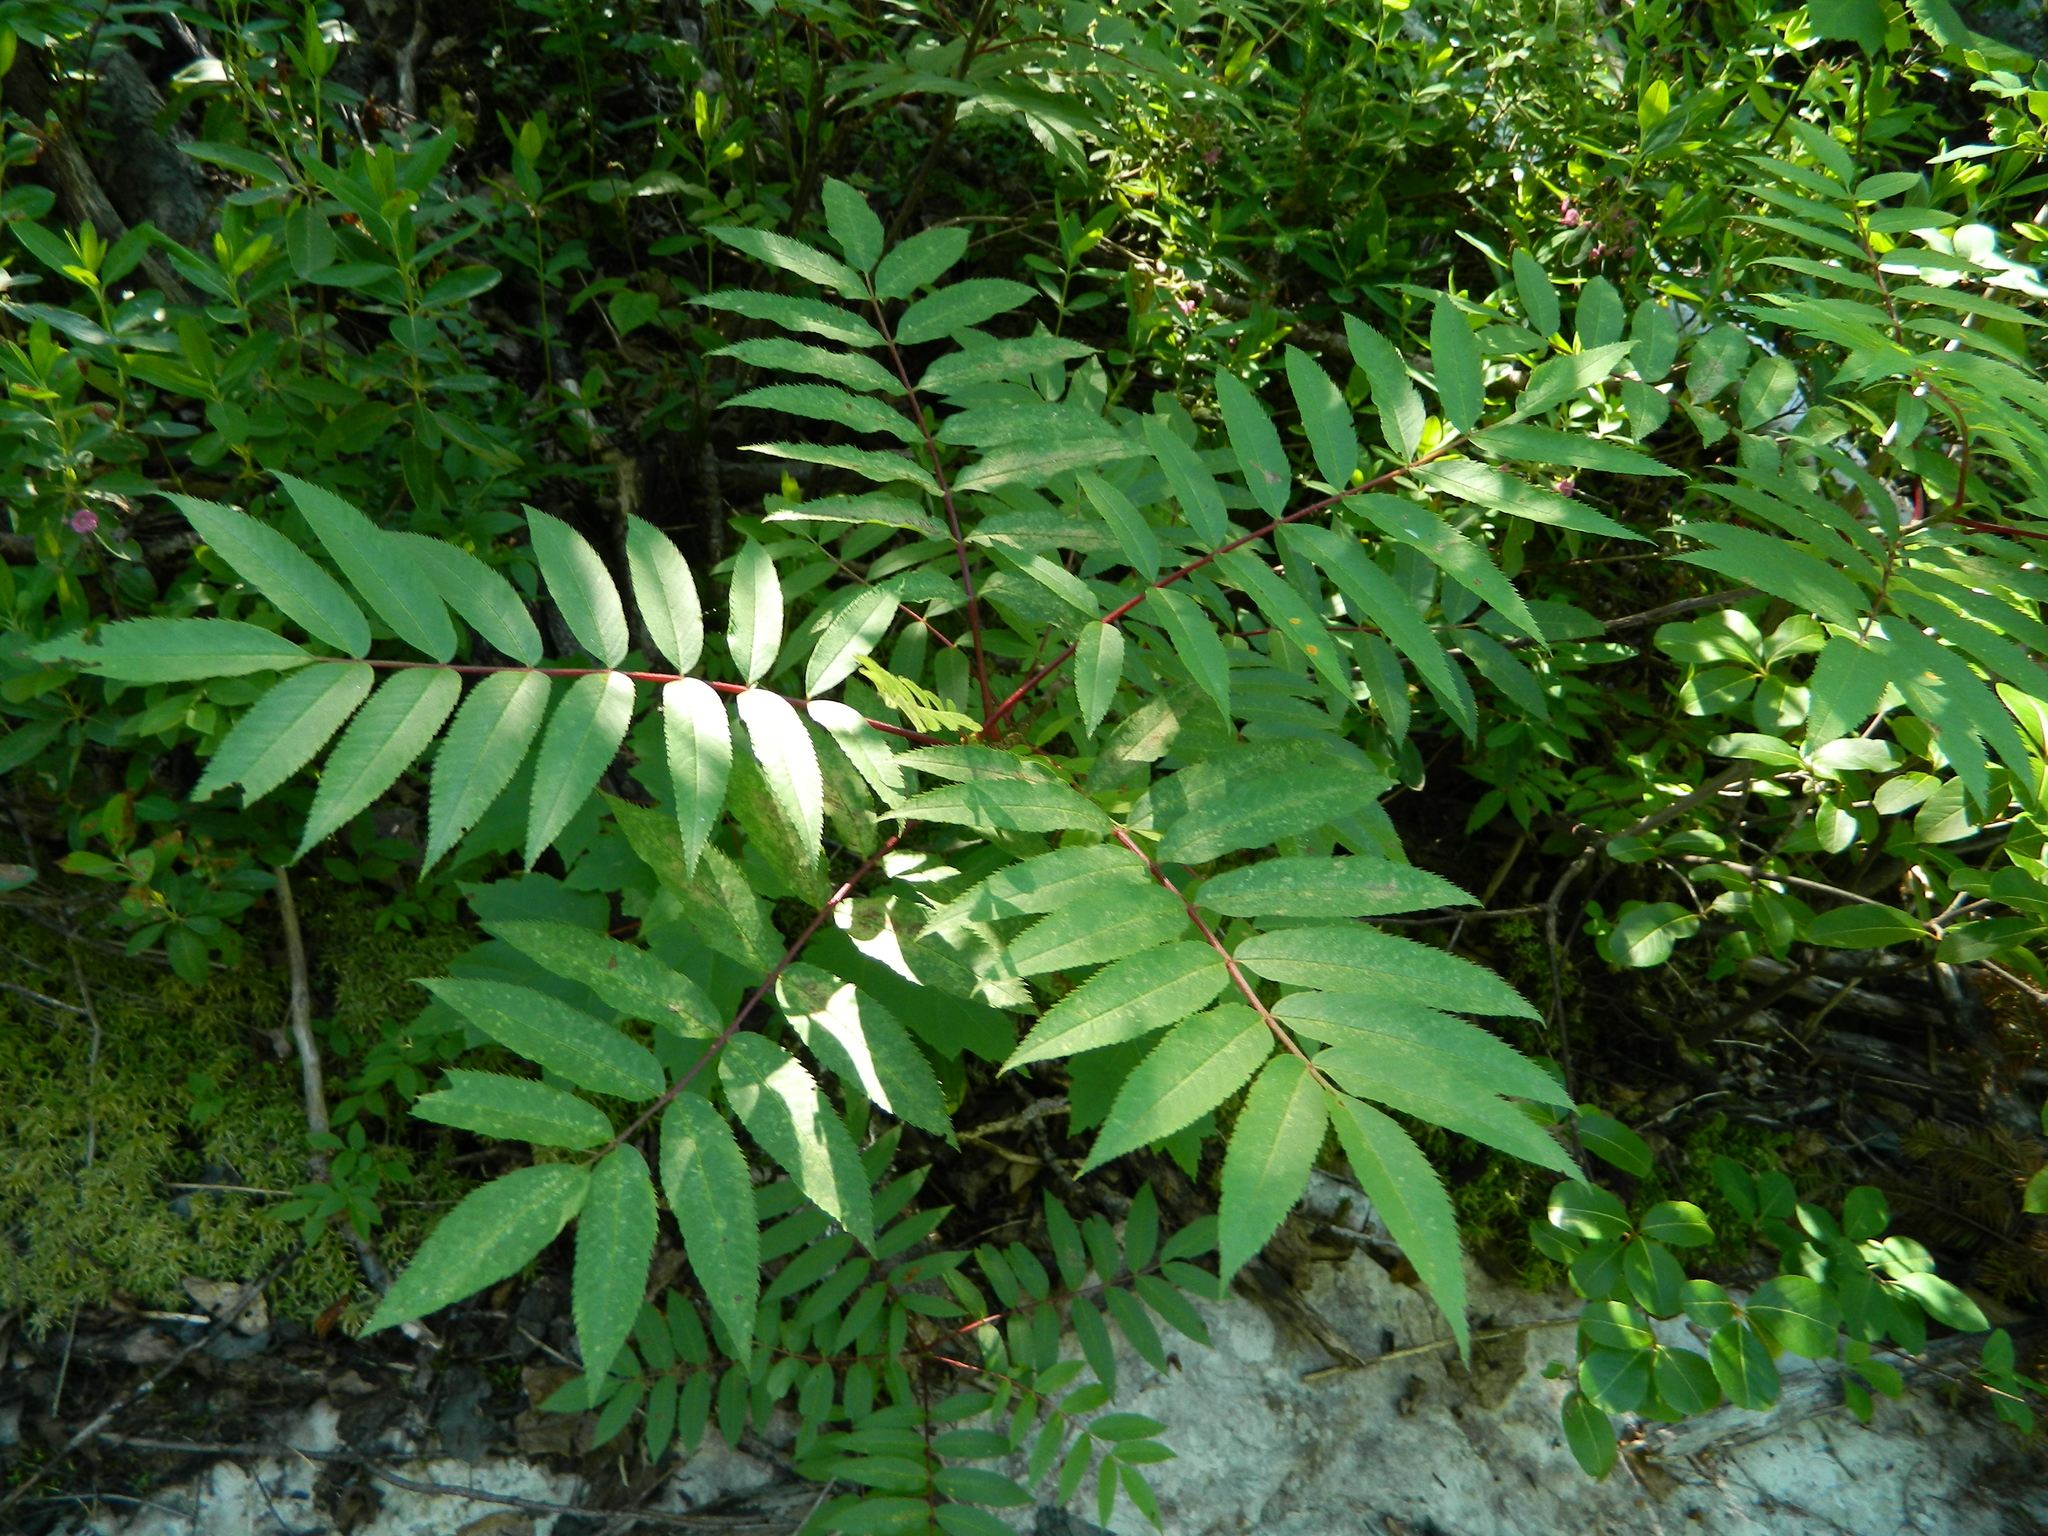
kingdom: Plantae
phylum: Tracheophyta
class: Magnoliopsida
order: Rosales
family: Rosaceae
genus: Sorbus
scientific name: Sorbus americana
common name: American mountain-ash
